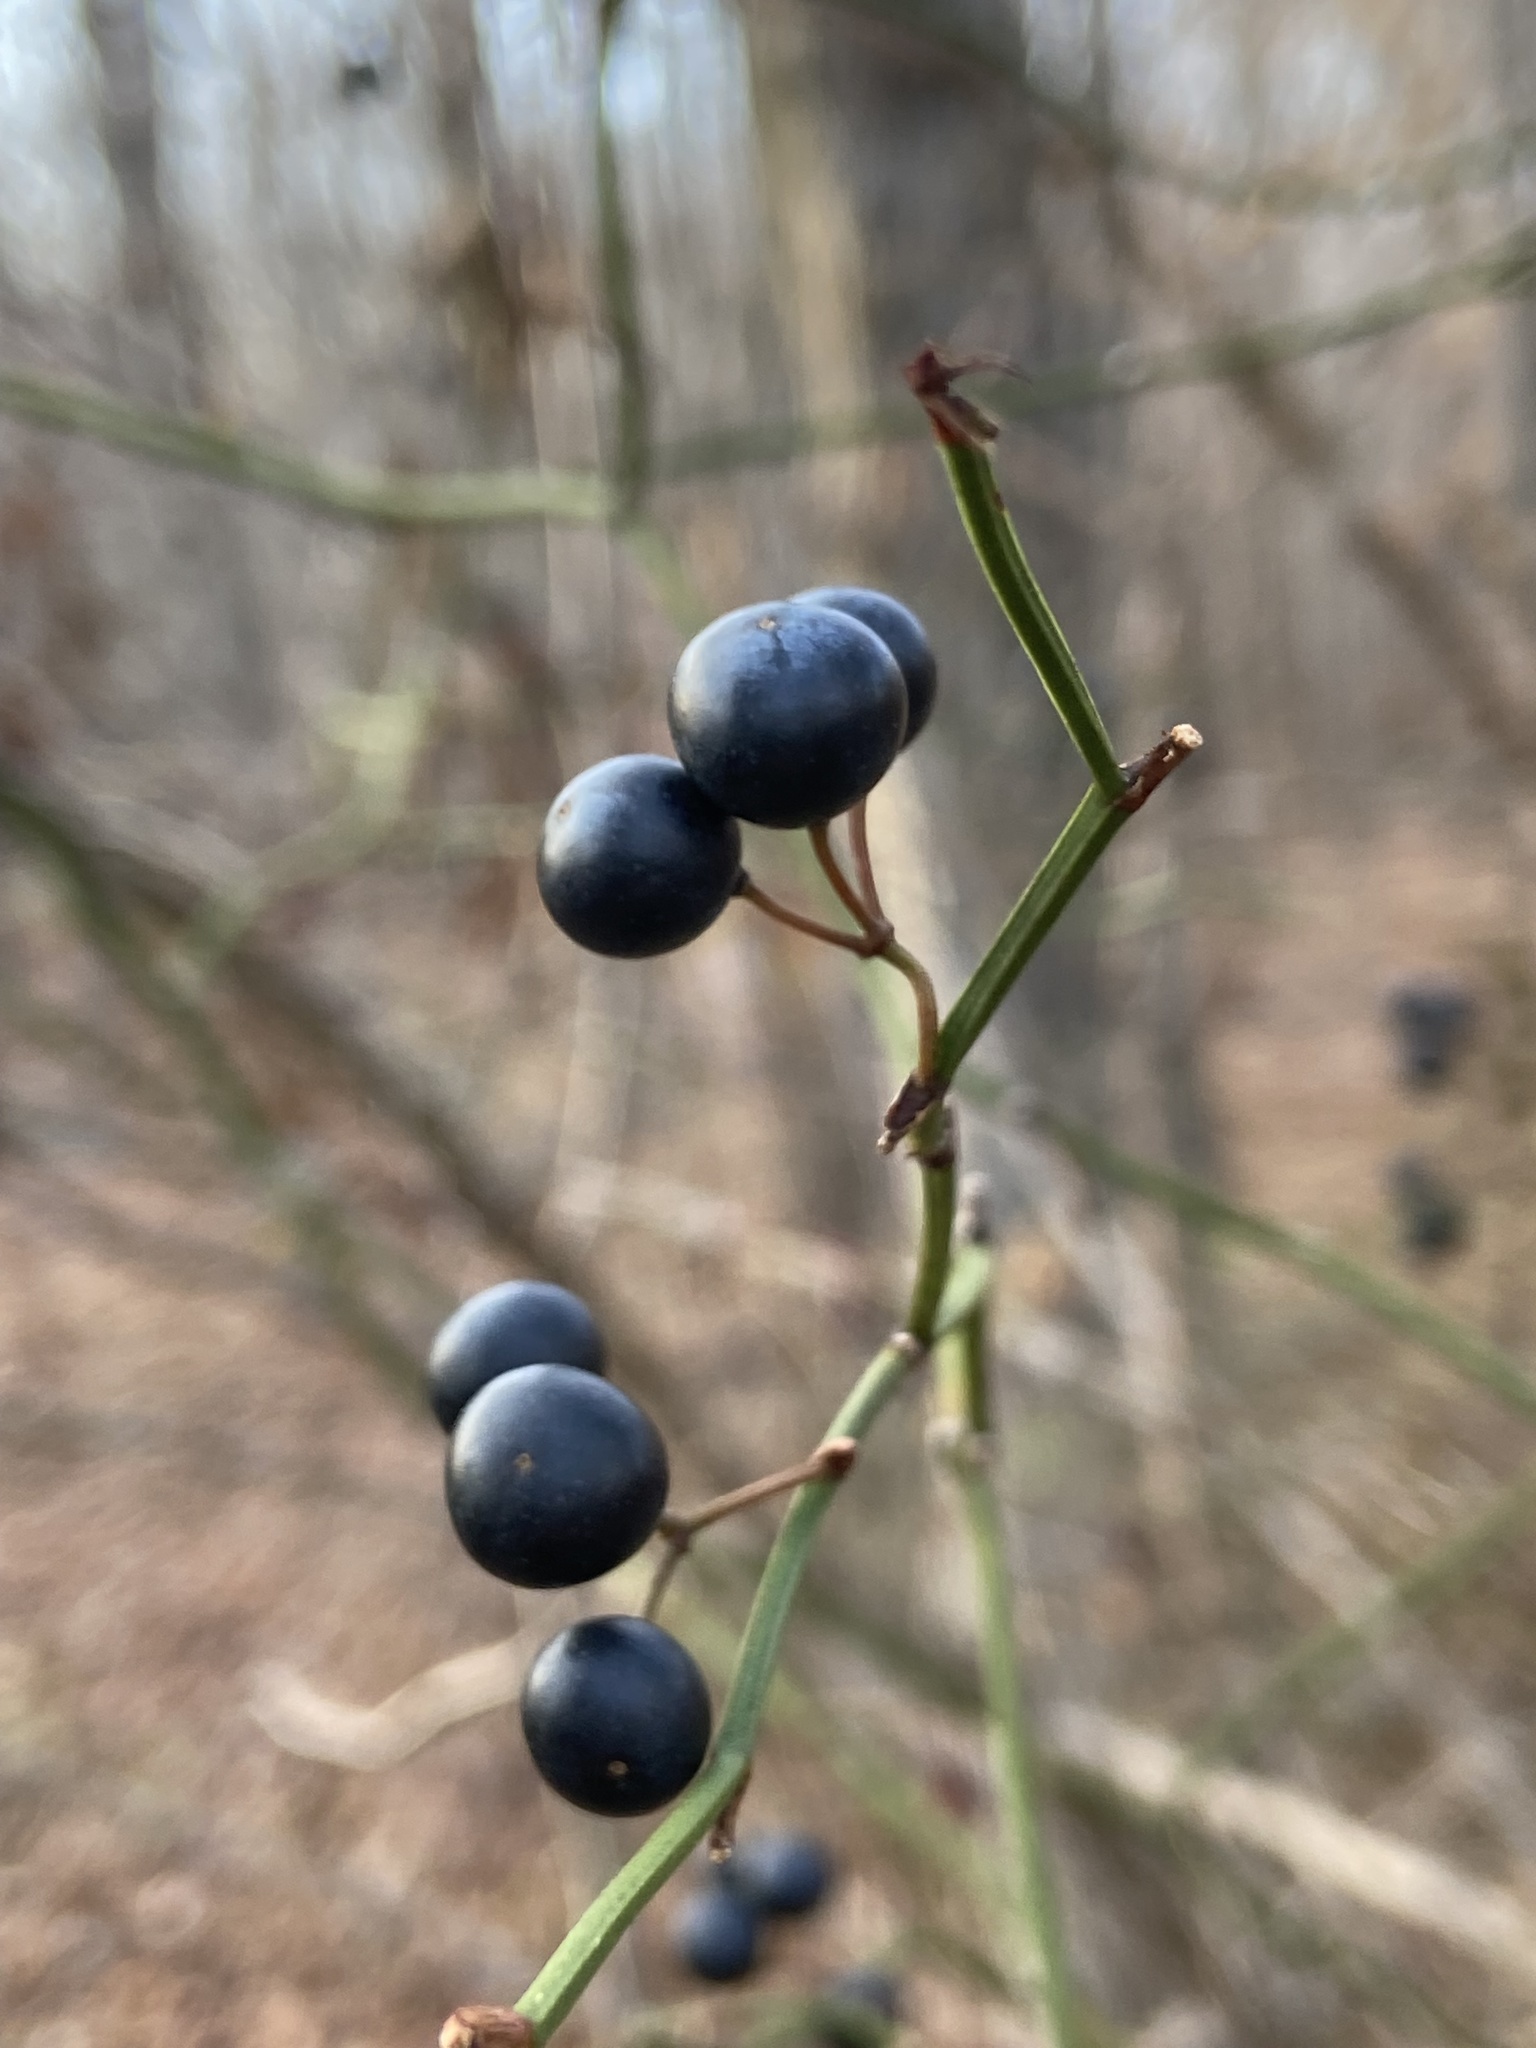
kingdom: Plantae
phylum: Tracheophyta
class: Liliopsida
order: Liliales
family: Smilacaceae
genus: Smilax
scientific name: Smilax rotundifolia
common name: Bullbriar
